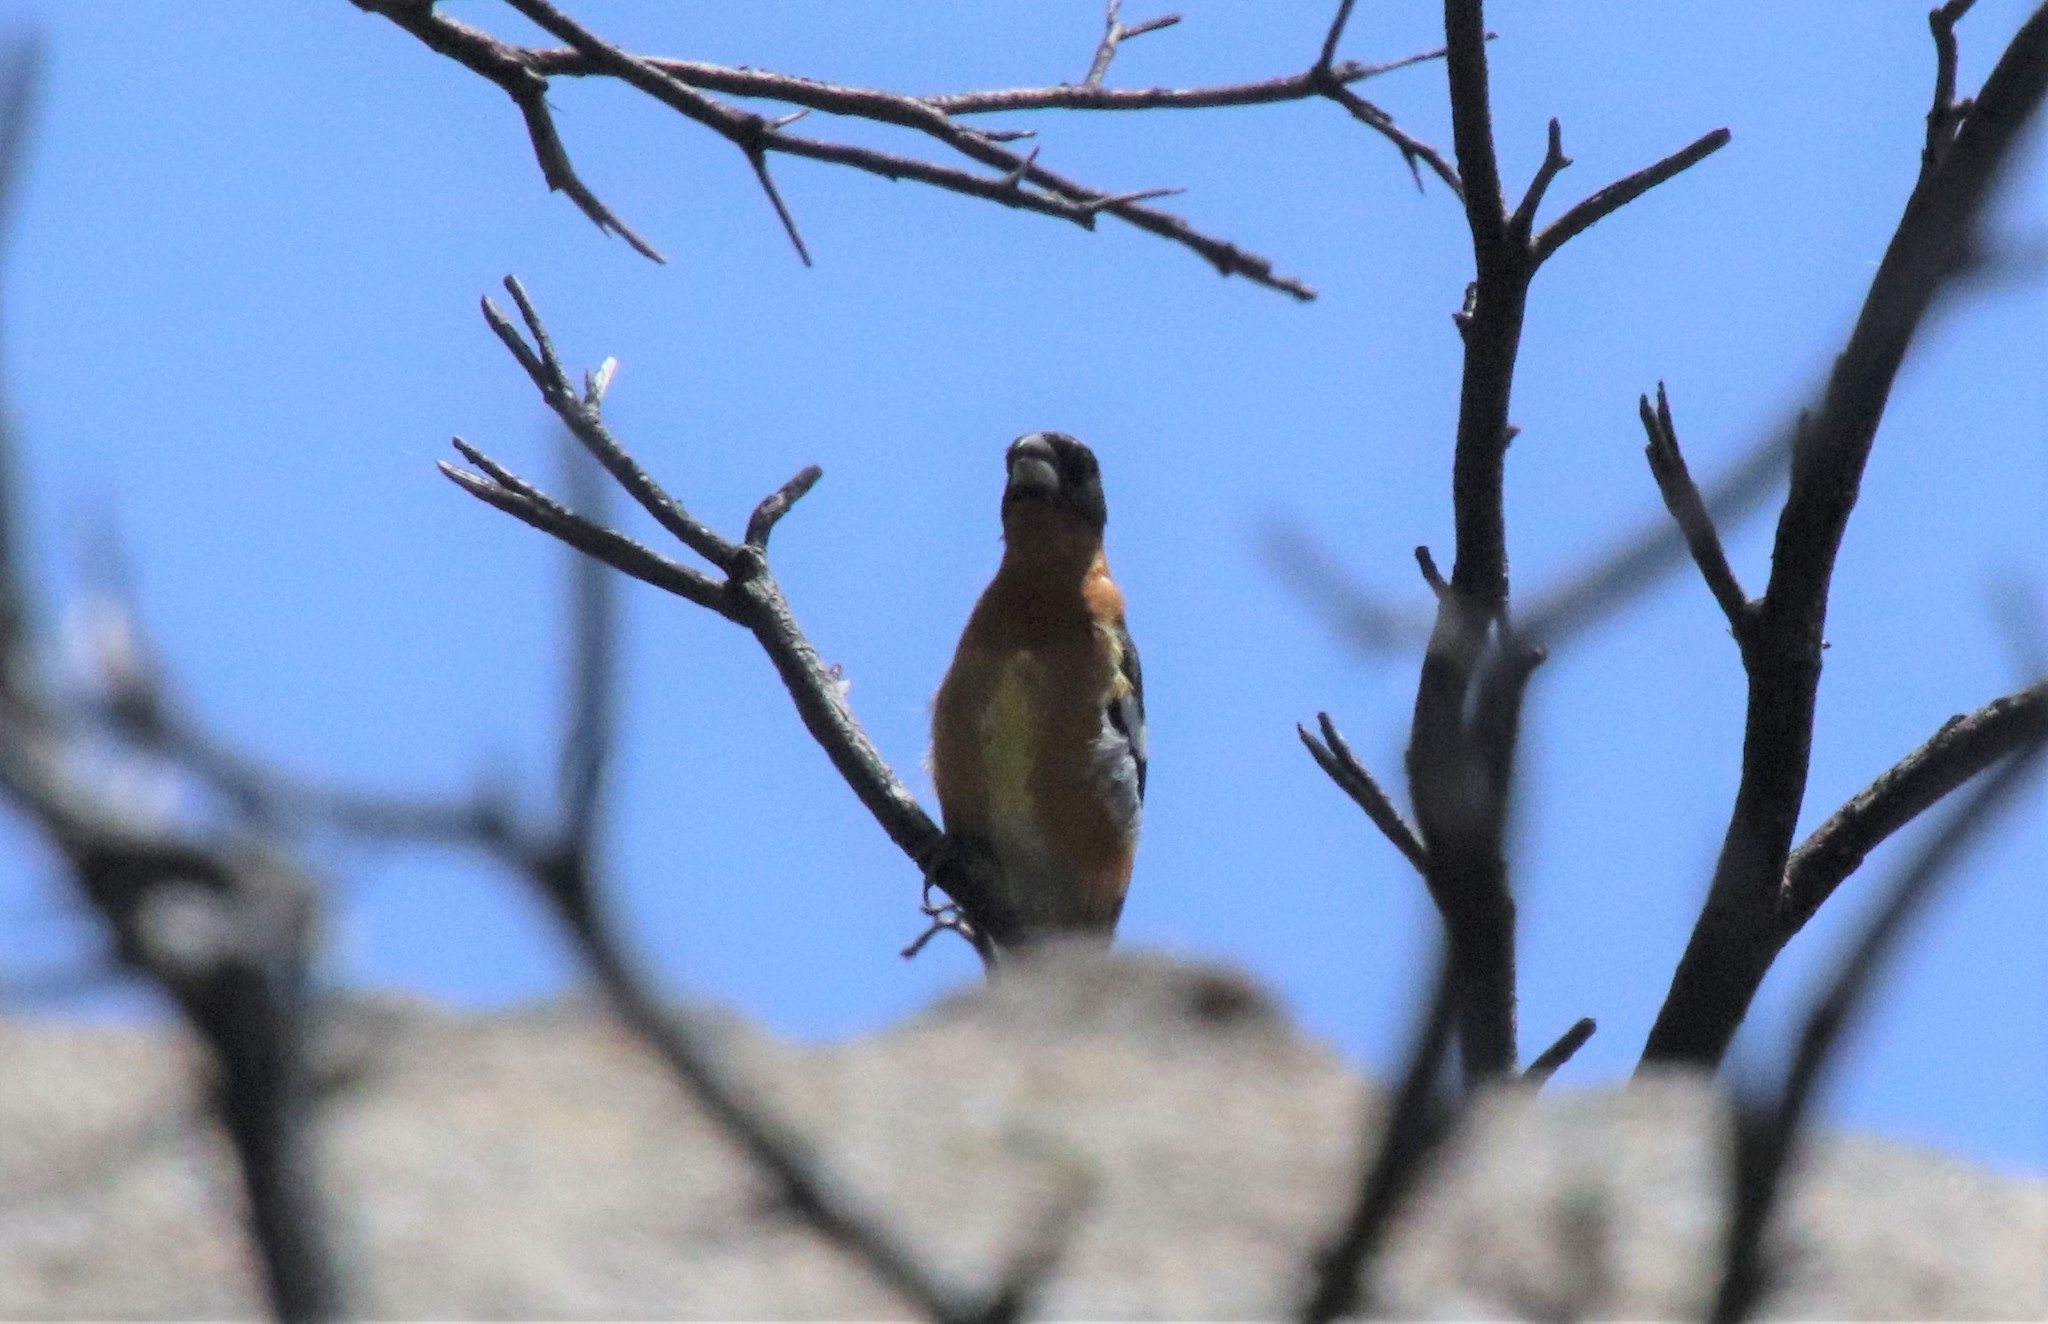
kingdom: Animalia
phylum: Chordata
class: Aves
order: Passeriformes
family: Cardinalidae
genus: Pheucticus
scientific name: Pheucticus melanocephalus
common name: Black-headed grosbeak
